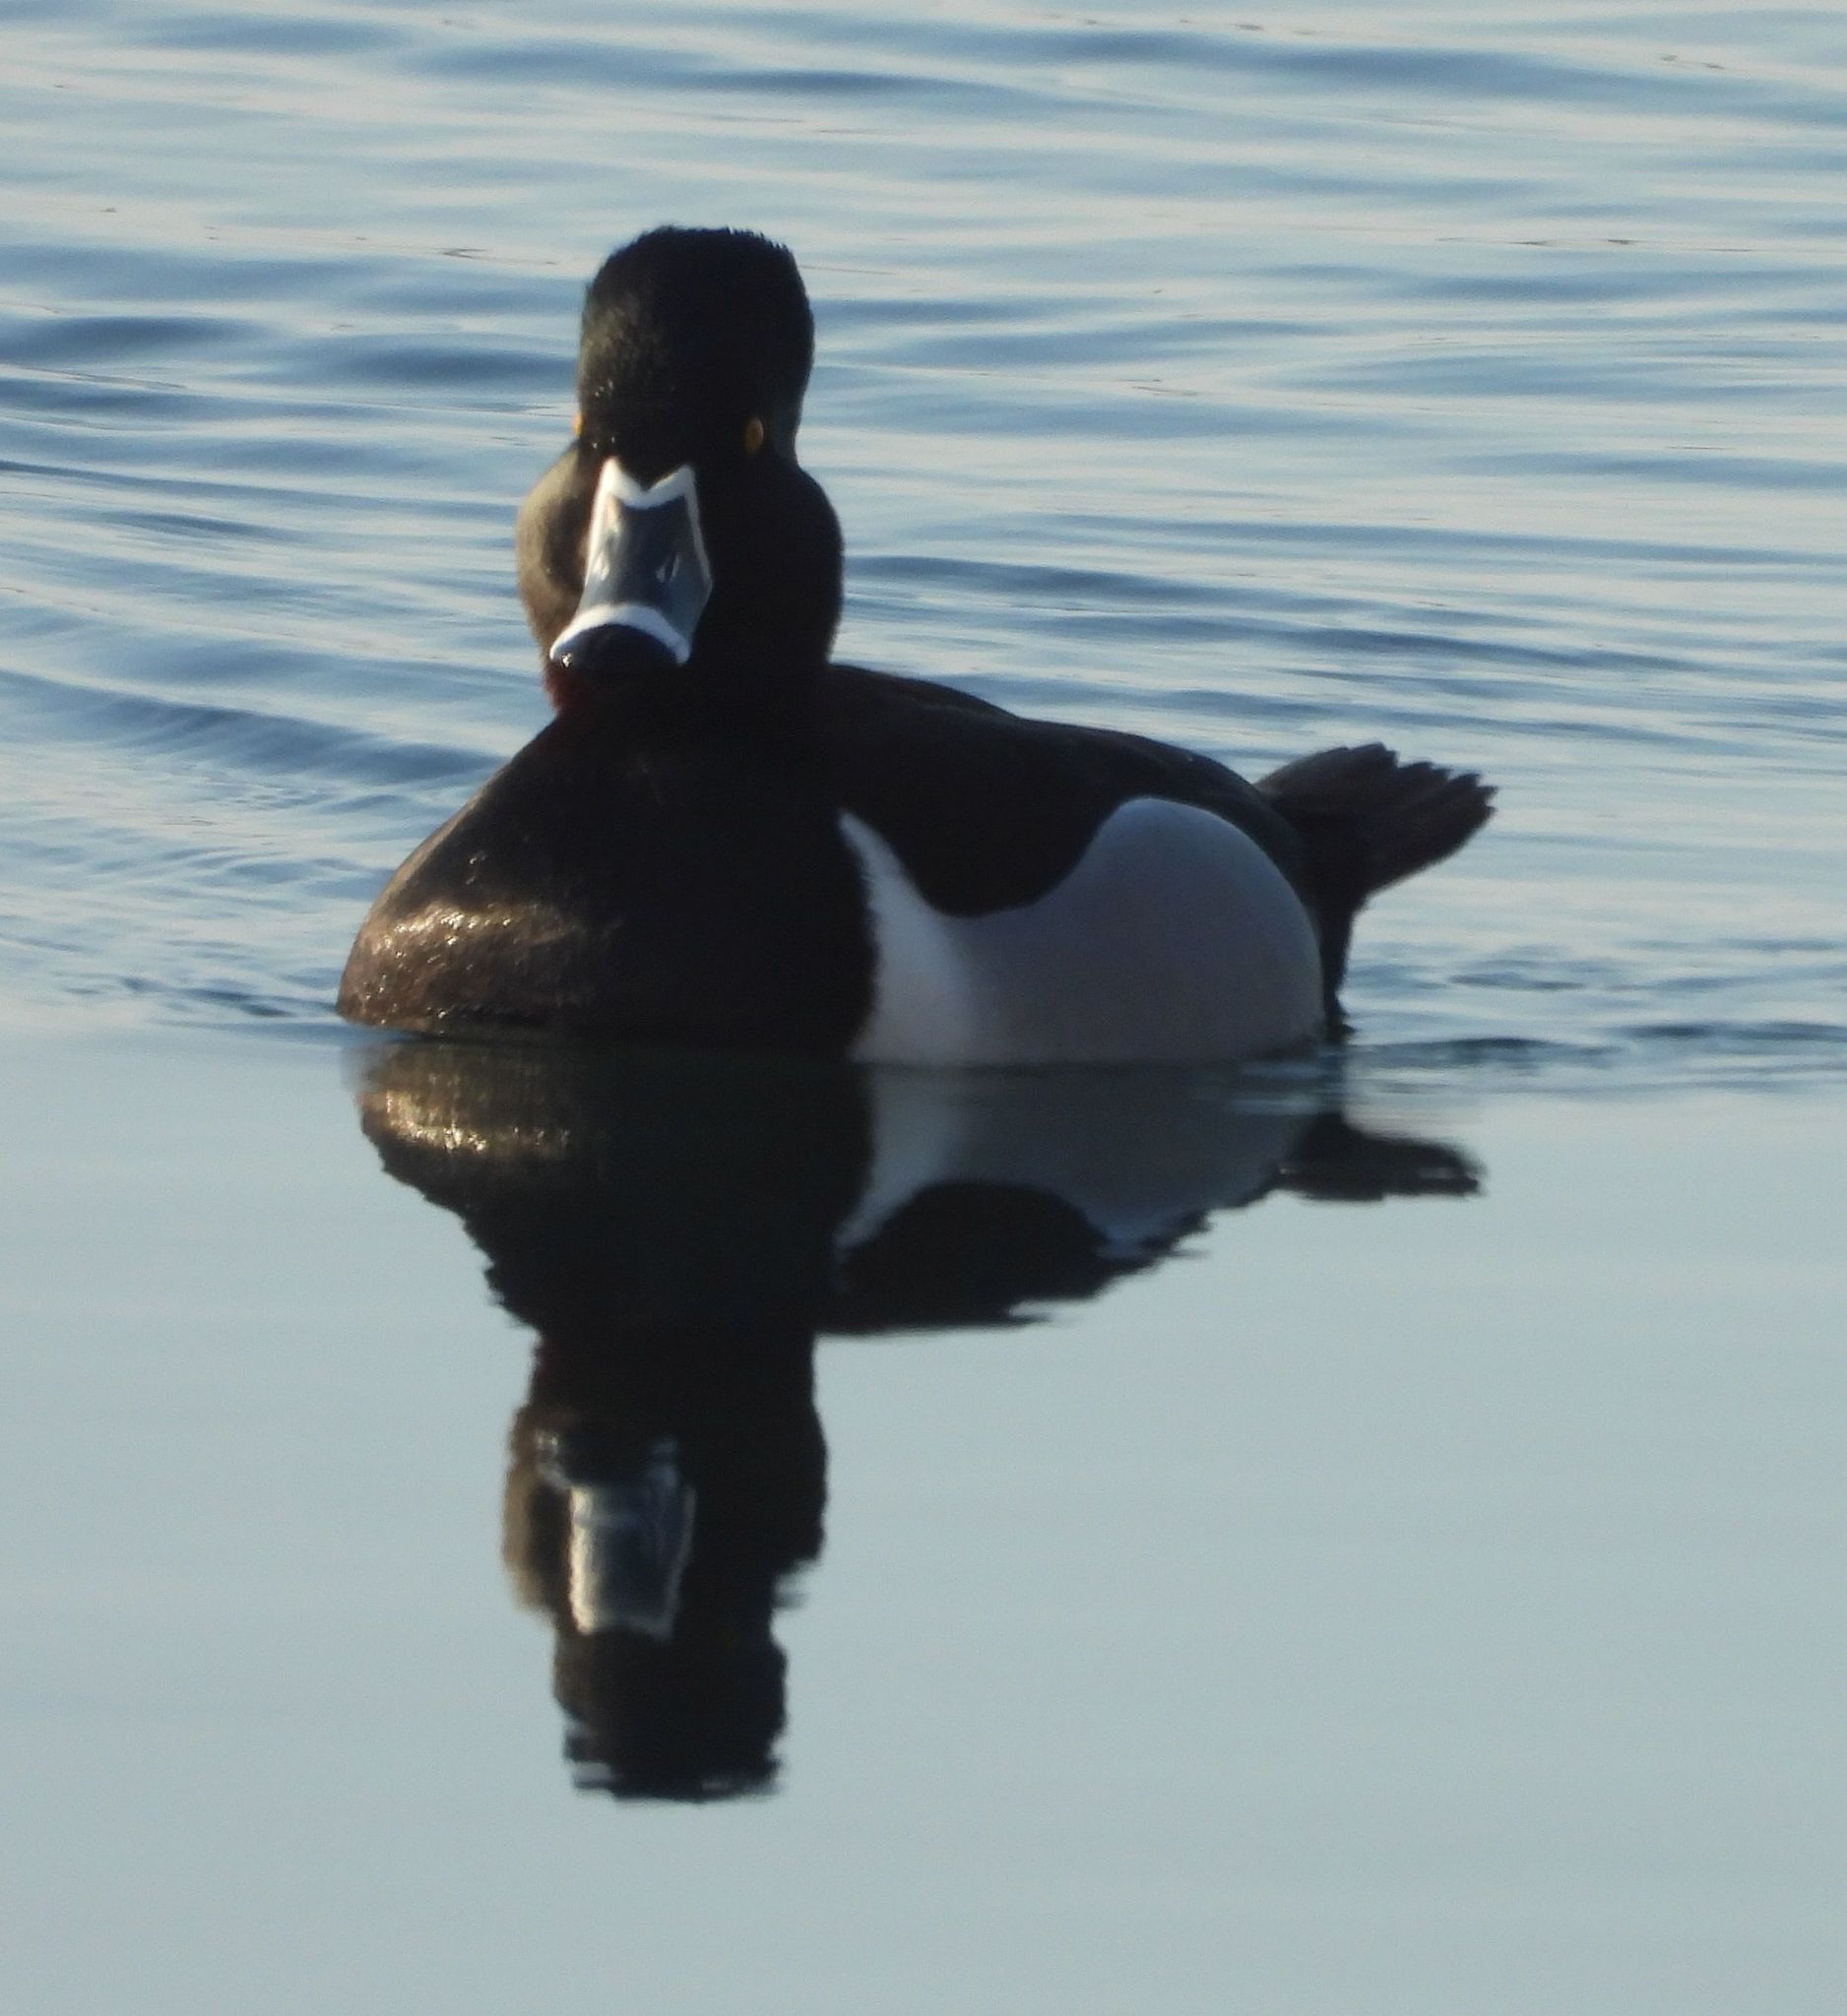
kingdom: Animalia
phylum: Chordata
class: Aves
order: Anseriformes
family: Anatidae
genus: Aythya
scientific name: Aythya collaris
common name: Ring-necked duck
